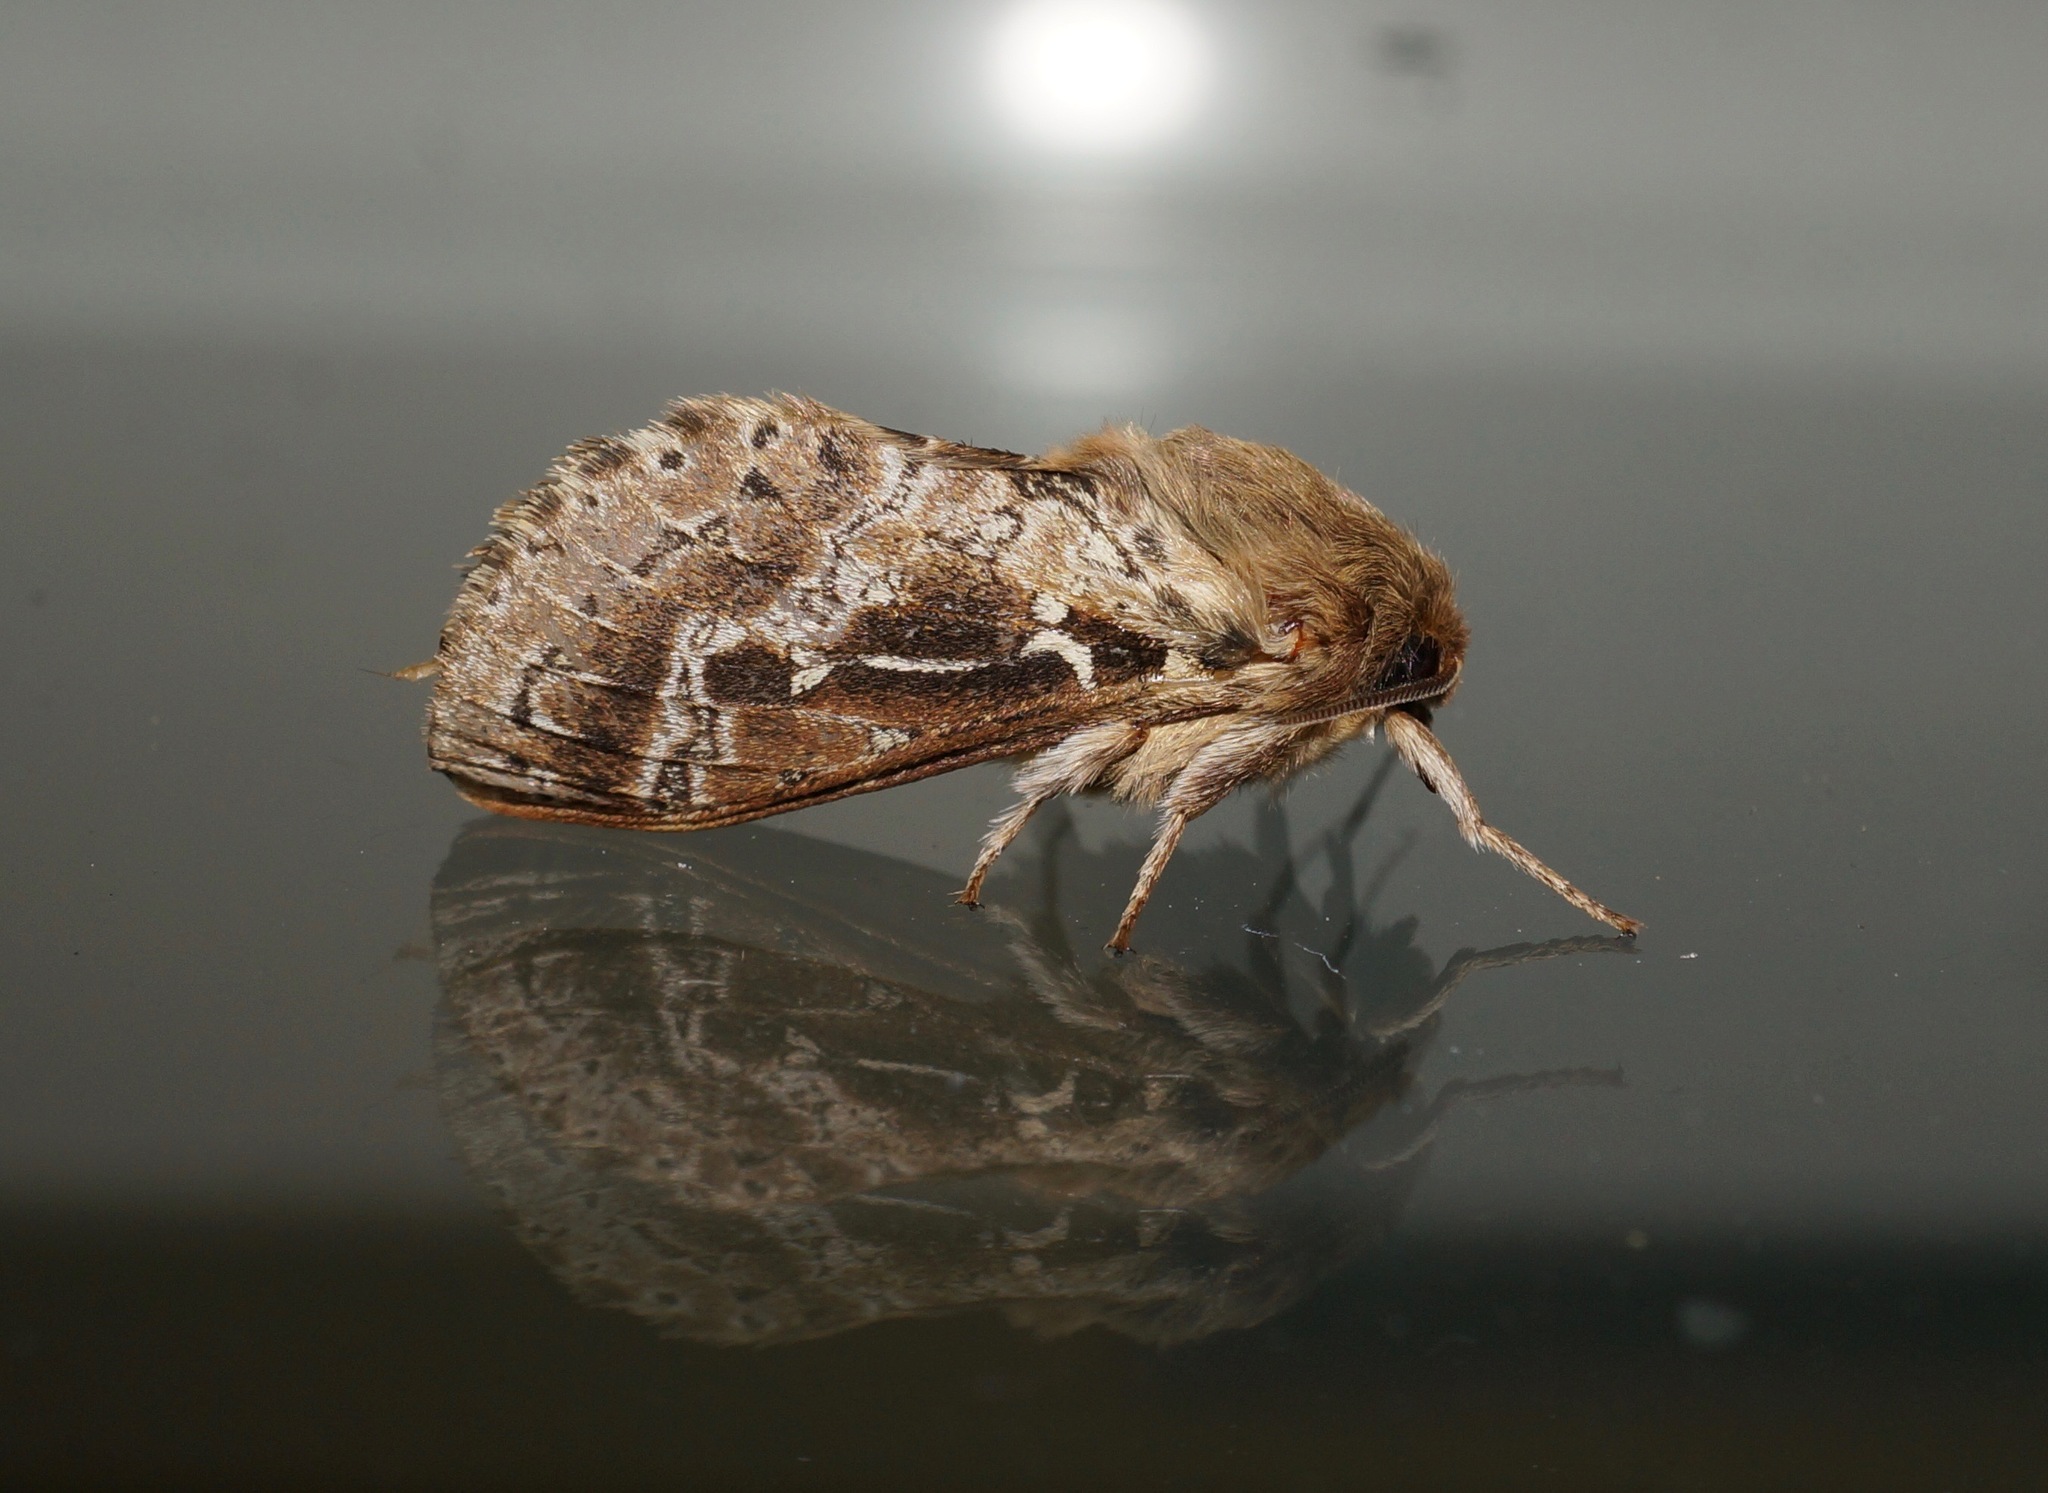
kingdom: Animalia
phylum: Arthropoda
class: Insecta
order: Lepidoptera
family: Hepialidae
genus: Wiseana
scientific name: Wiseana cervinata
